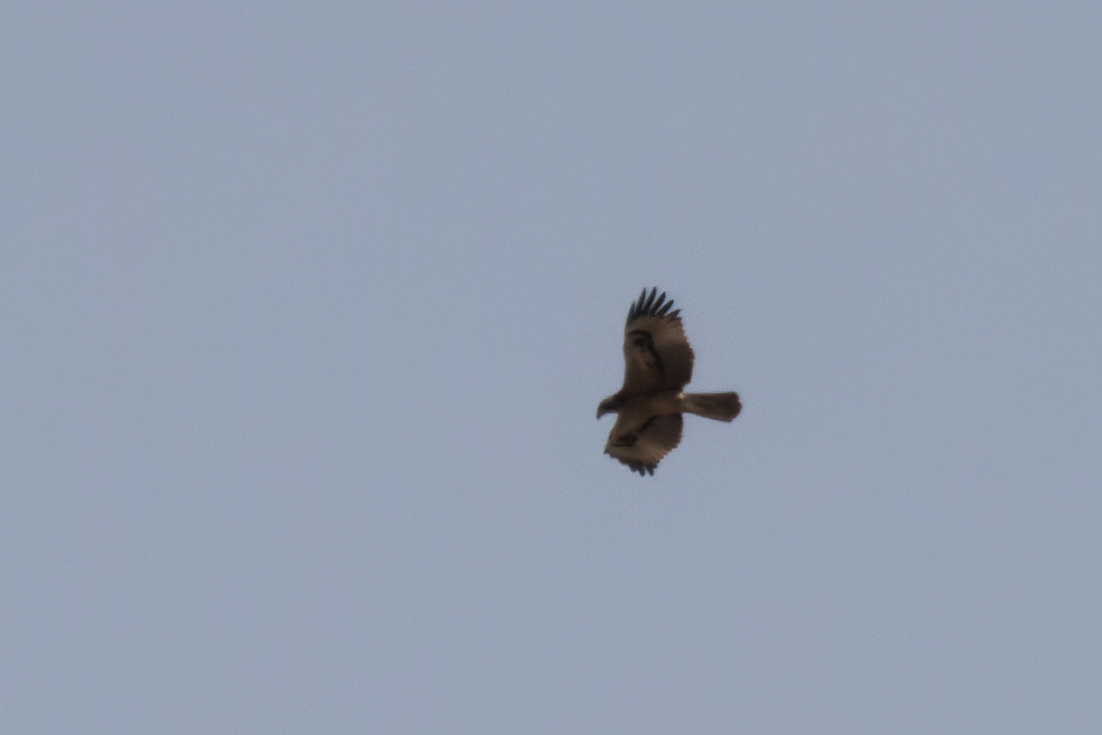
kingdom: Animalia
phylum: Chordata
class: Aves
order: Accipitriformes
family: Accipitridae
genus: Aquila
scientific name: Aquila fasciata
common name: Bonelli's eagle
